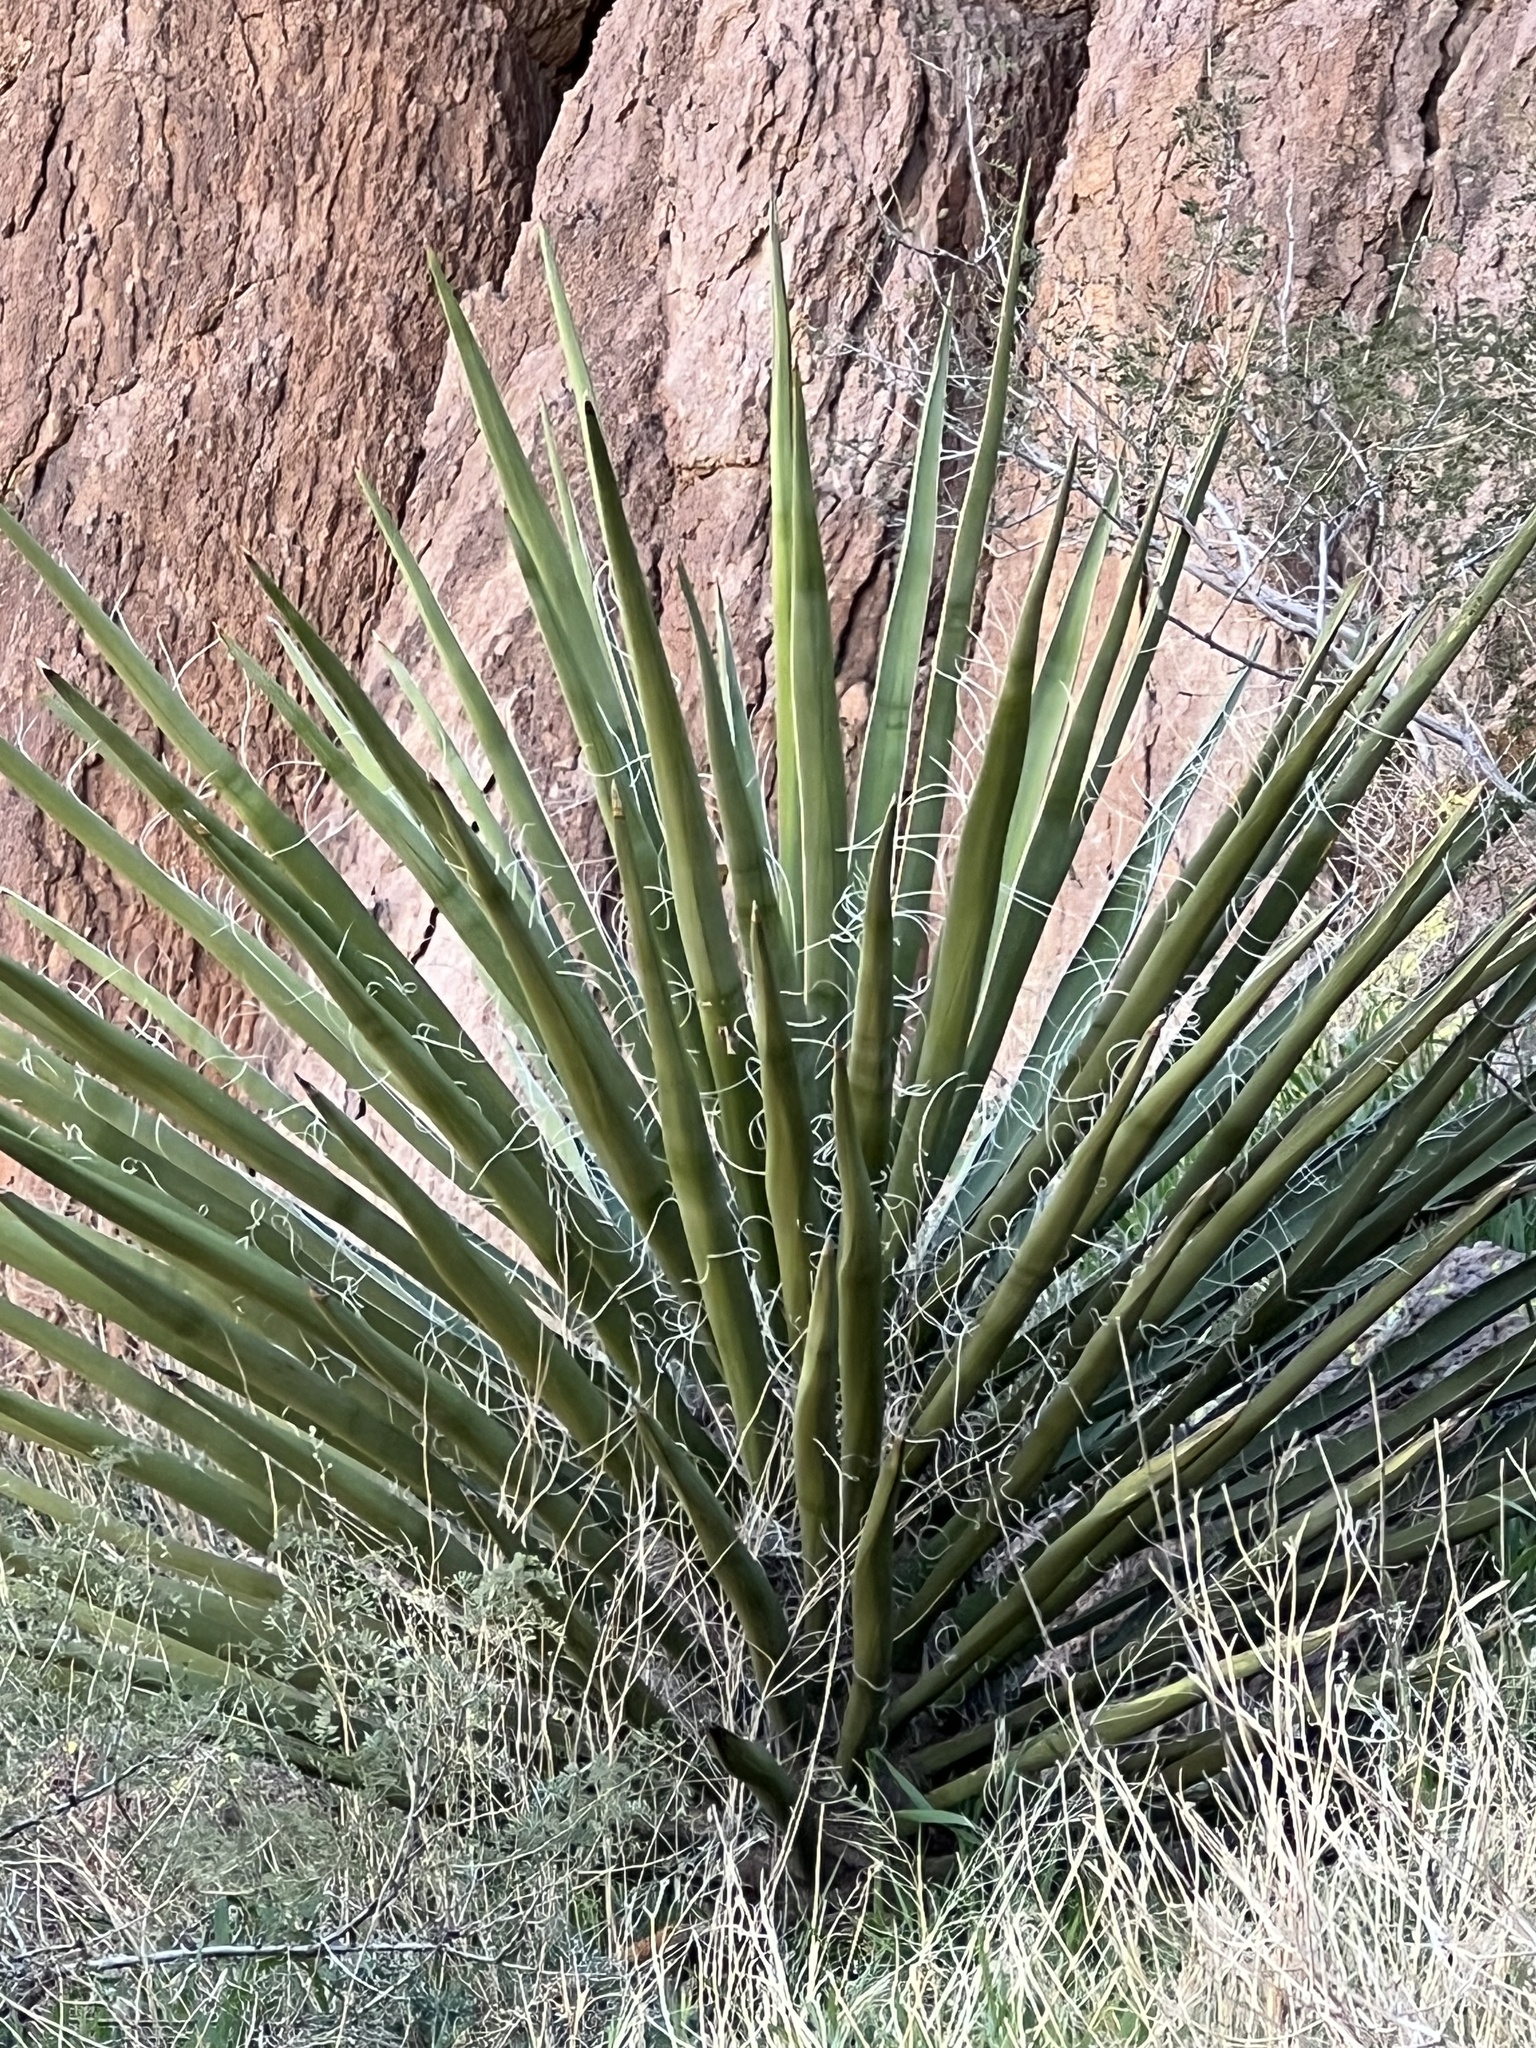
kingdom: Plantae
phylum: Tracheophyta
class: Liliopsida
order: Asparagales
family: Asparagaceae
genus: Yucca
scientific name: Yucca schidigera
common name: Mojave yucca
